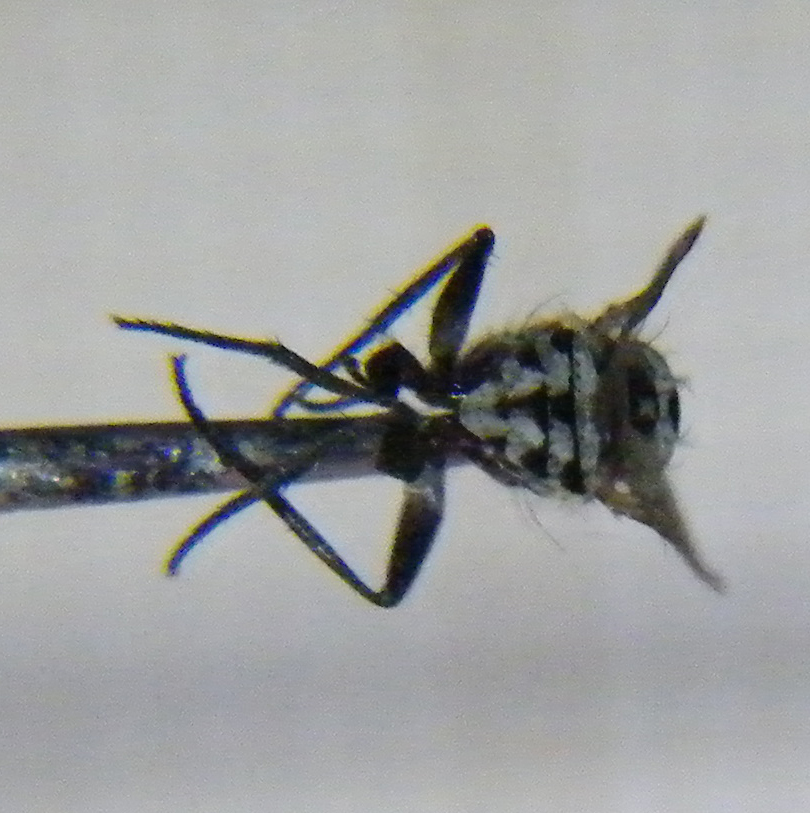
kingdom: Animalia
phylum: Arthropoda
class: Insecta
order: Diptera
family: Anthomyiidae
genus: Anthomyia
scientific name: Anthomyia procellaris
